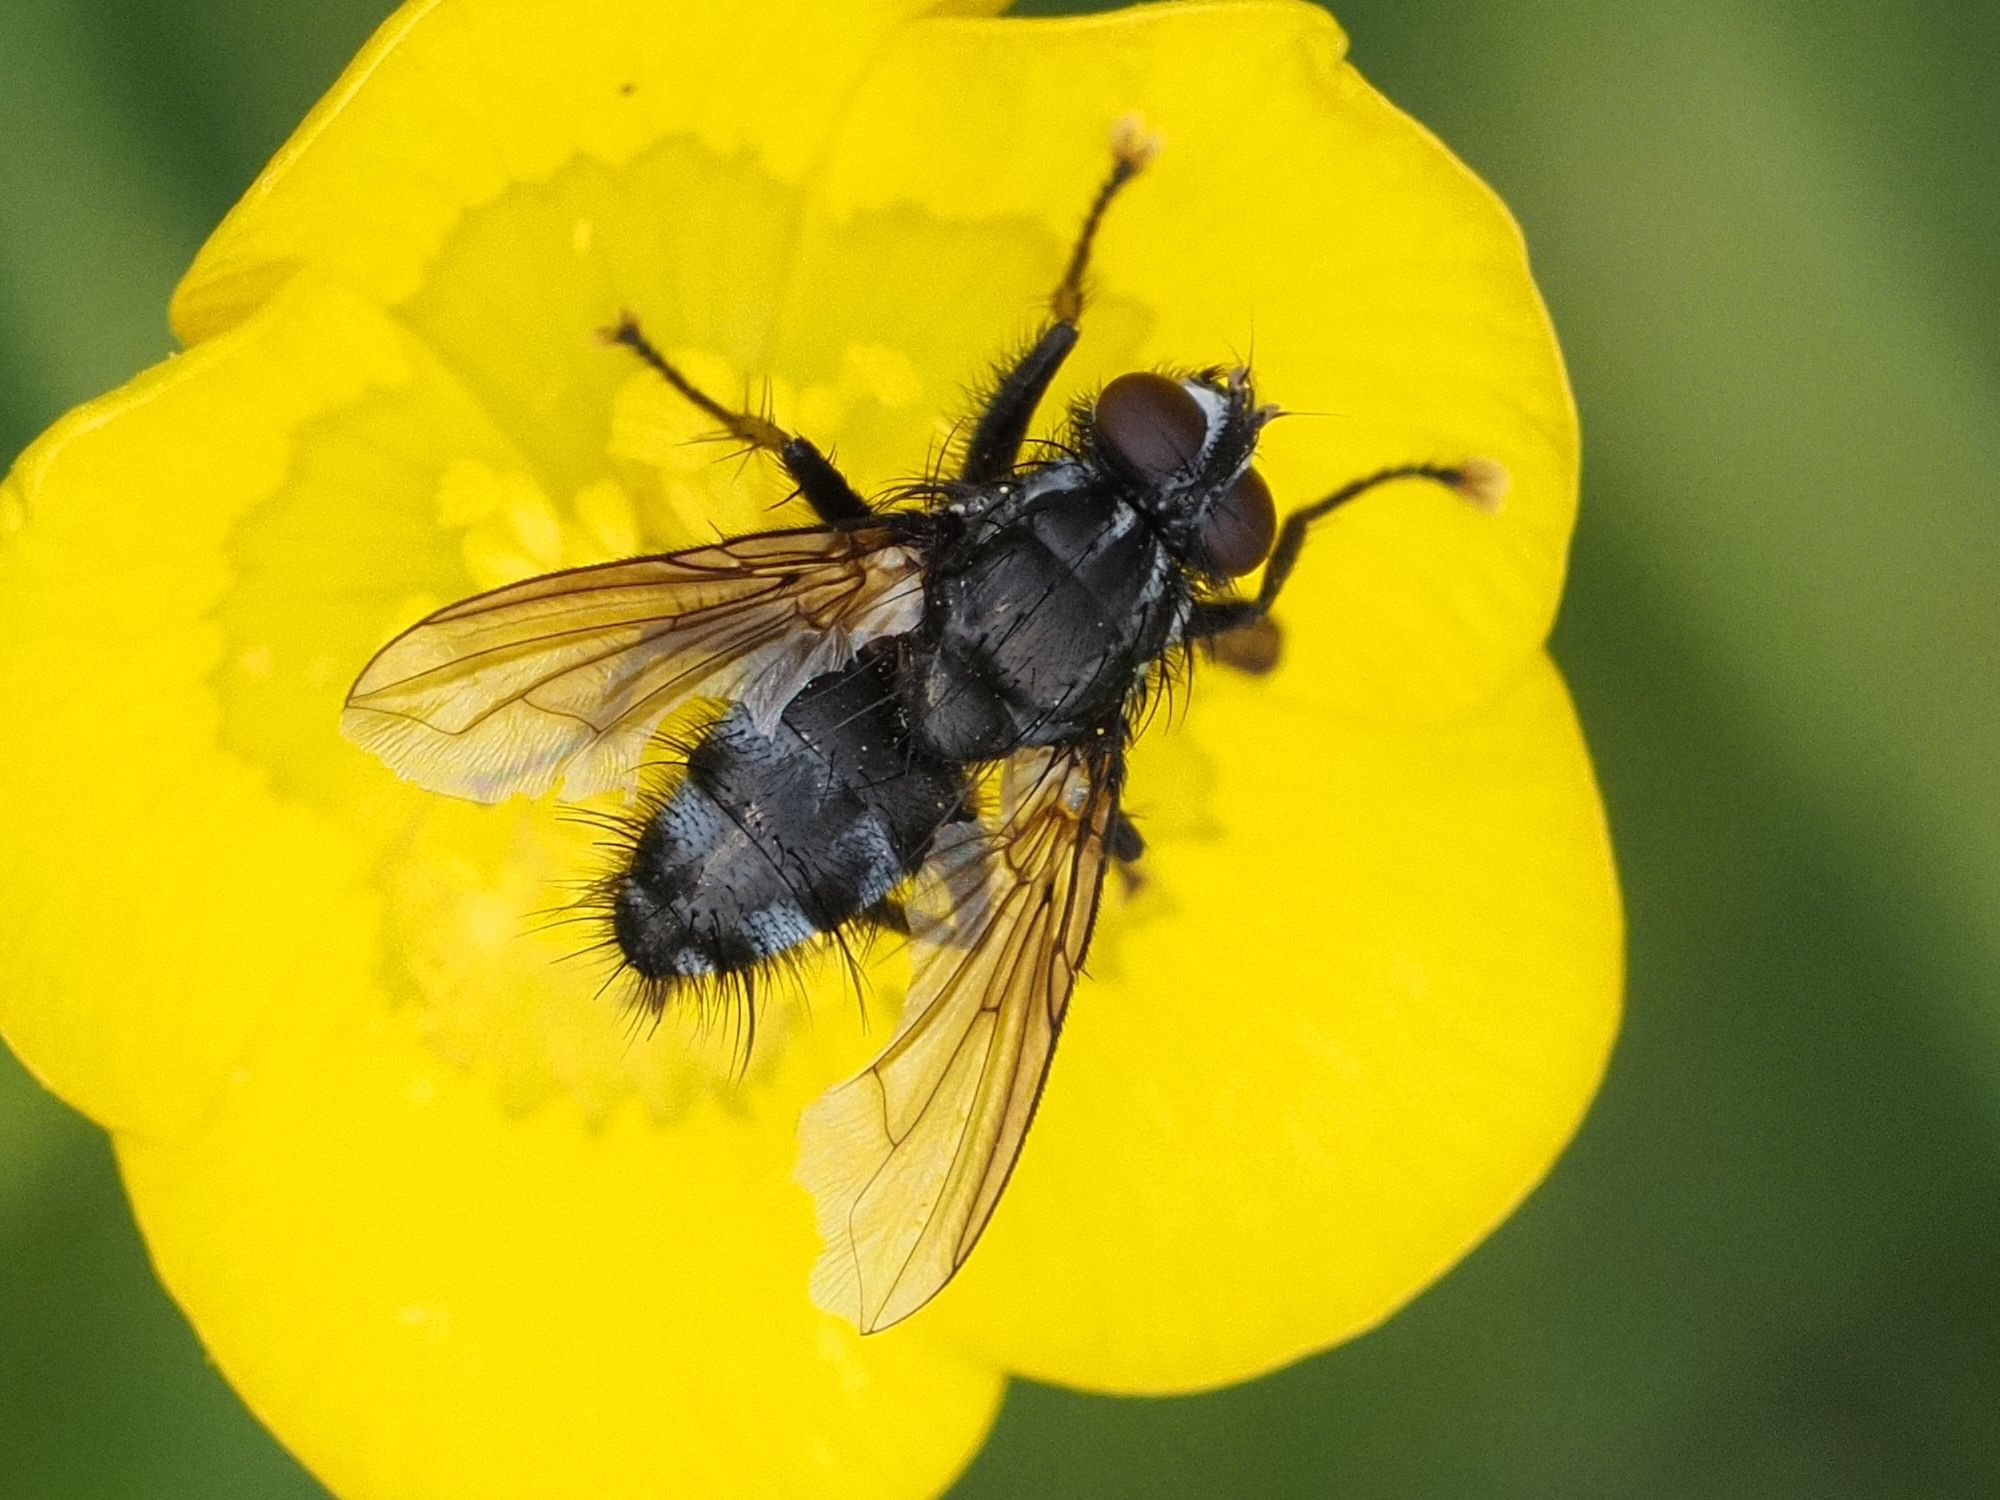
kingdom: Animalia
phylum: Arthropoda
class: Insecta
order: Diptera
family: Calliphoridae
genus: Rhinomorinia
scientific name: Rhinomorinia sarcophagina
